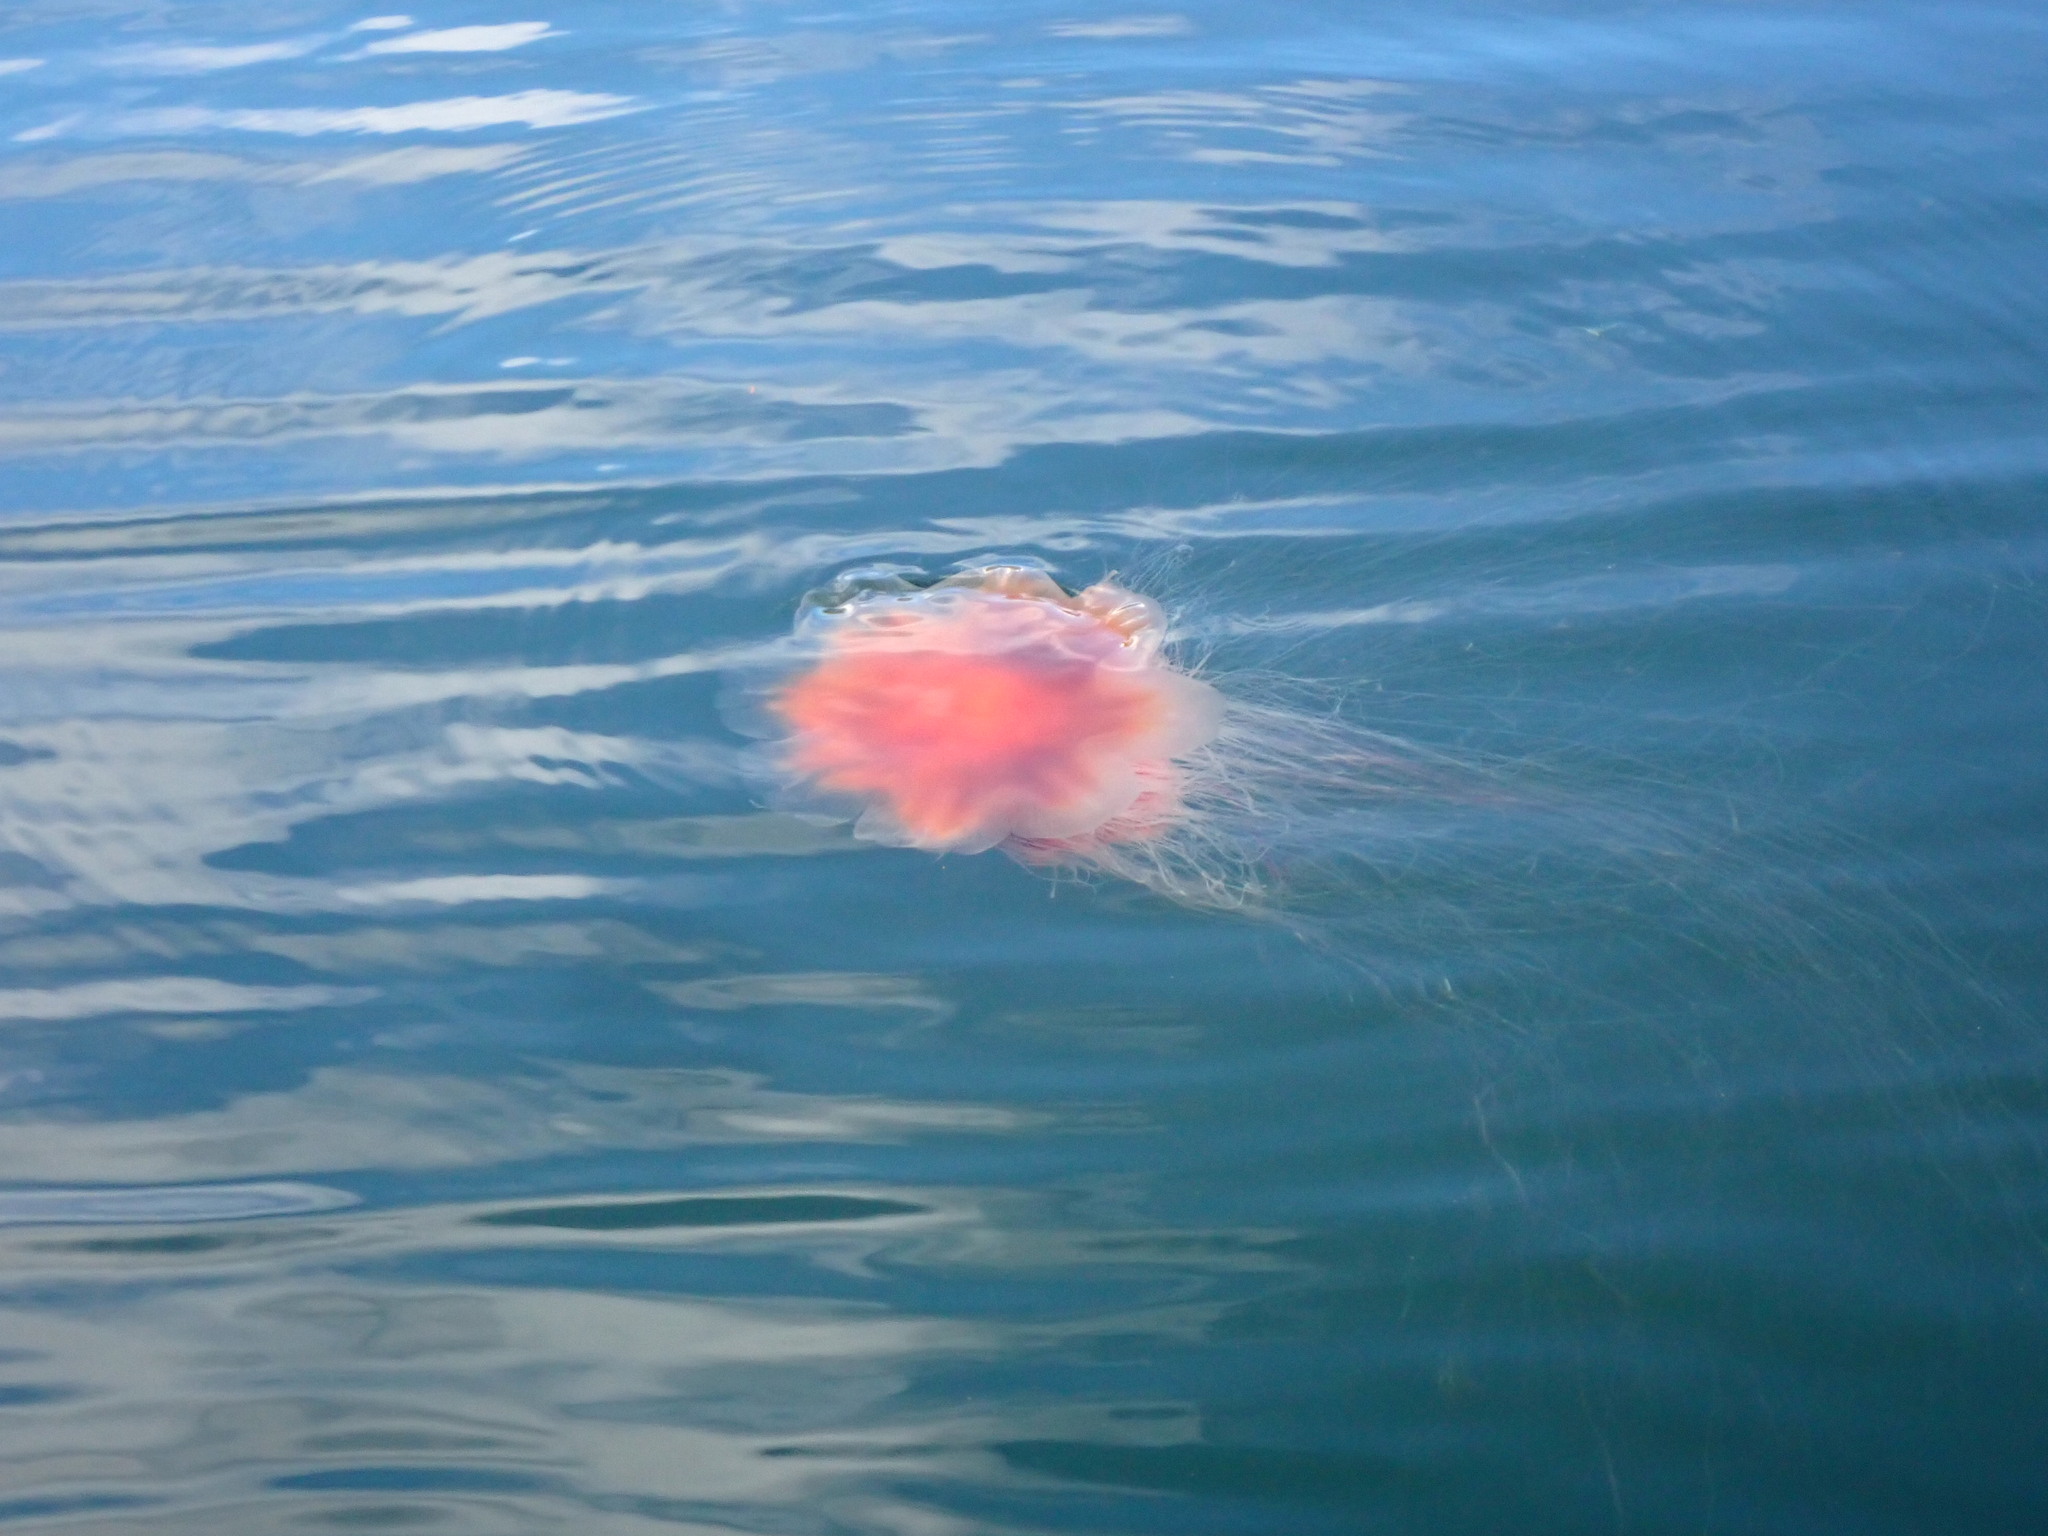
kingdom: Animalia
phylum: Cnidaria
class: Scyphozoa
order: Semaeostomeae
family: Cyaneidae
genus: Cyanea
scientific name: Cyanea ferruginea
